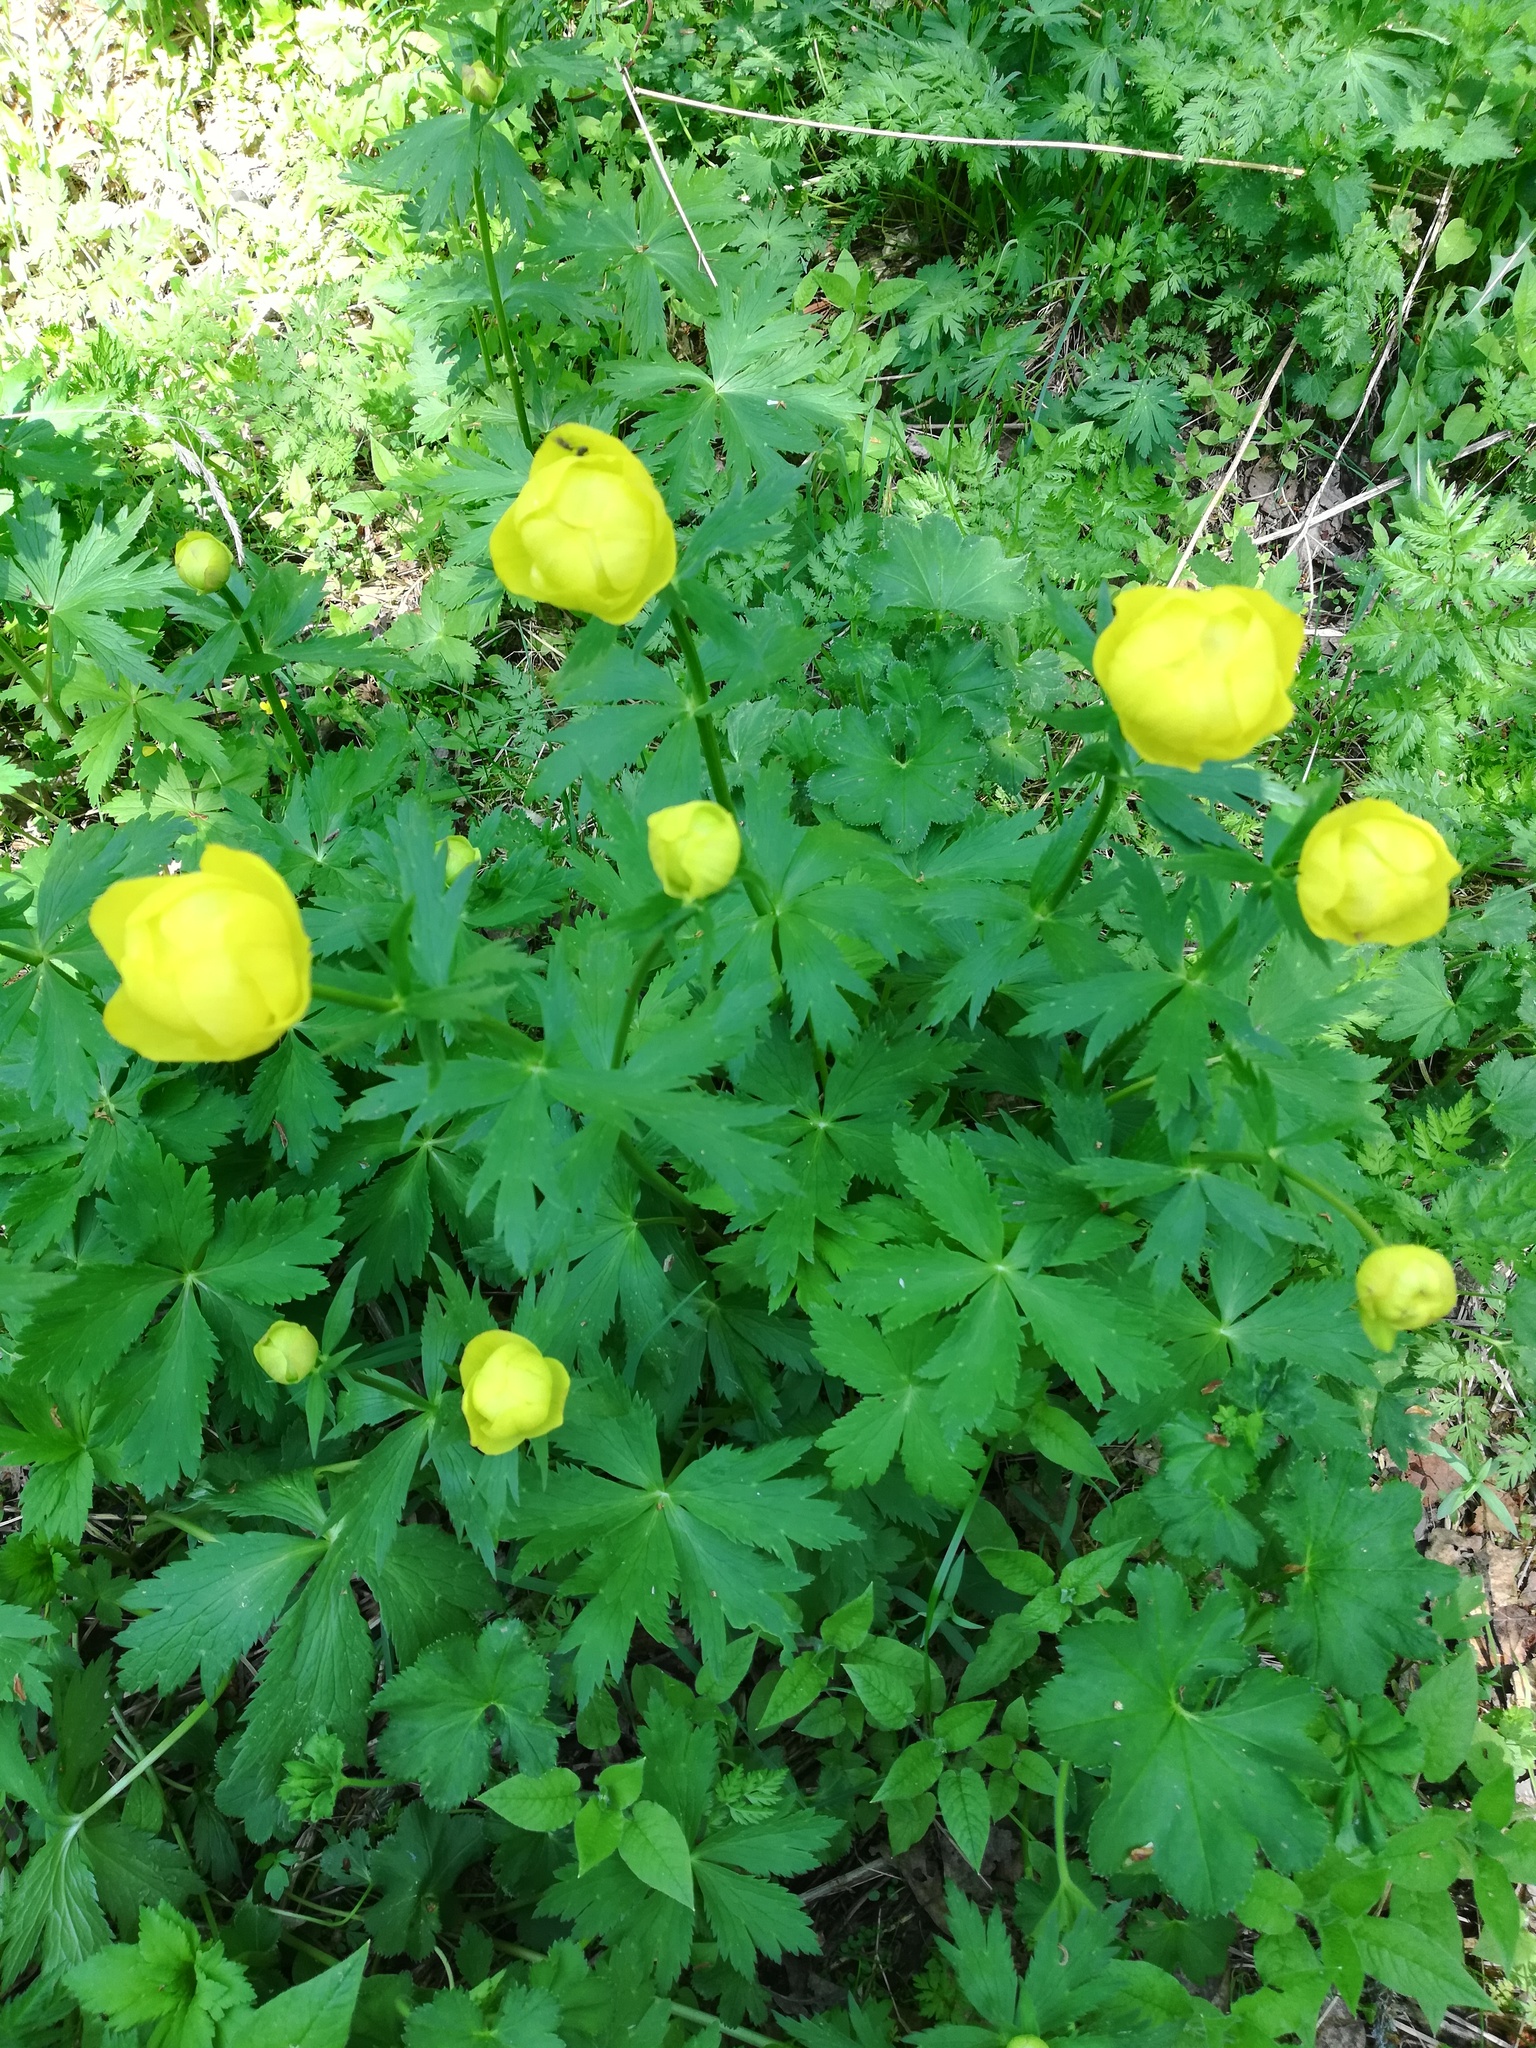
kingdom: Plantae
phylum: Tracheophyta
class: Magnoliopsida
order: Ranunculales
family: Ranunculaceae
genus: Trollius
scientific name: Trollius europaeus
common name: European globeflower
